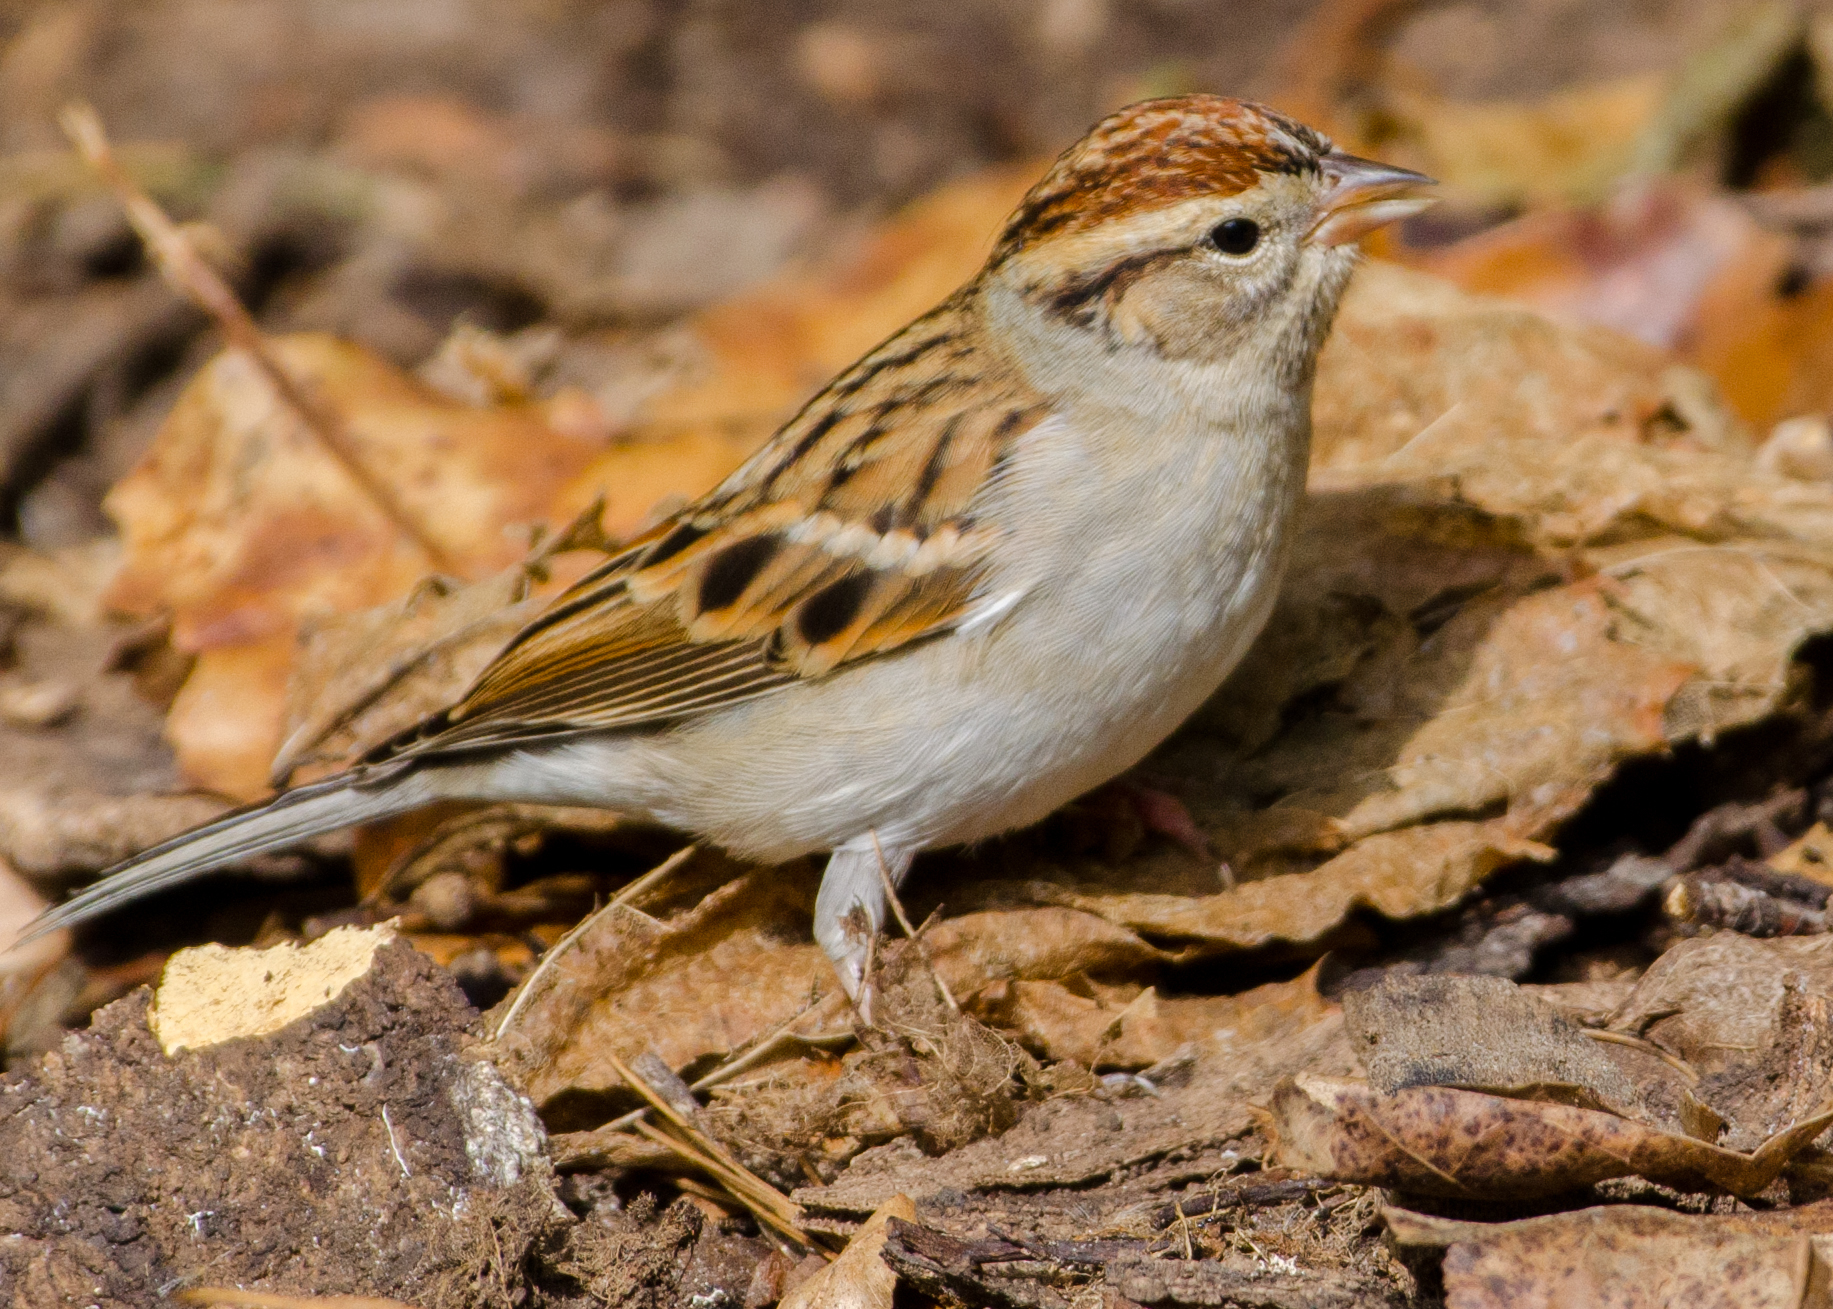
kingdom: Animalia
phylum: Chordata
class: Aves
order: Passeriformes
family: Passerellidae
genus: Spizella
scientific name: Spizella passerina
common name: Chipping sparrow
